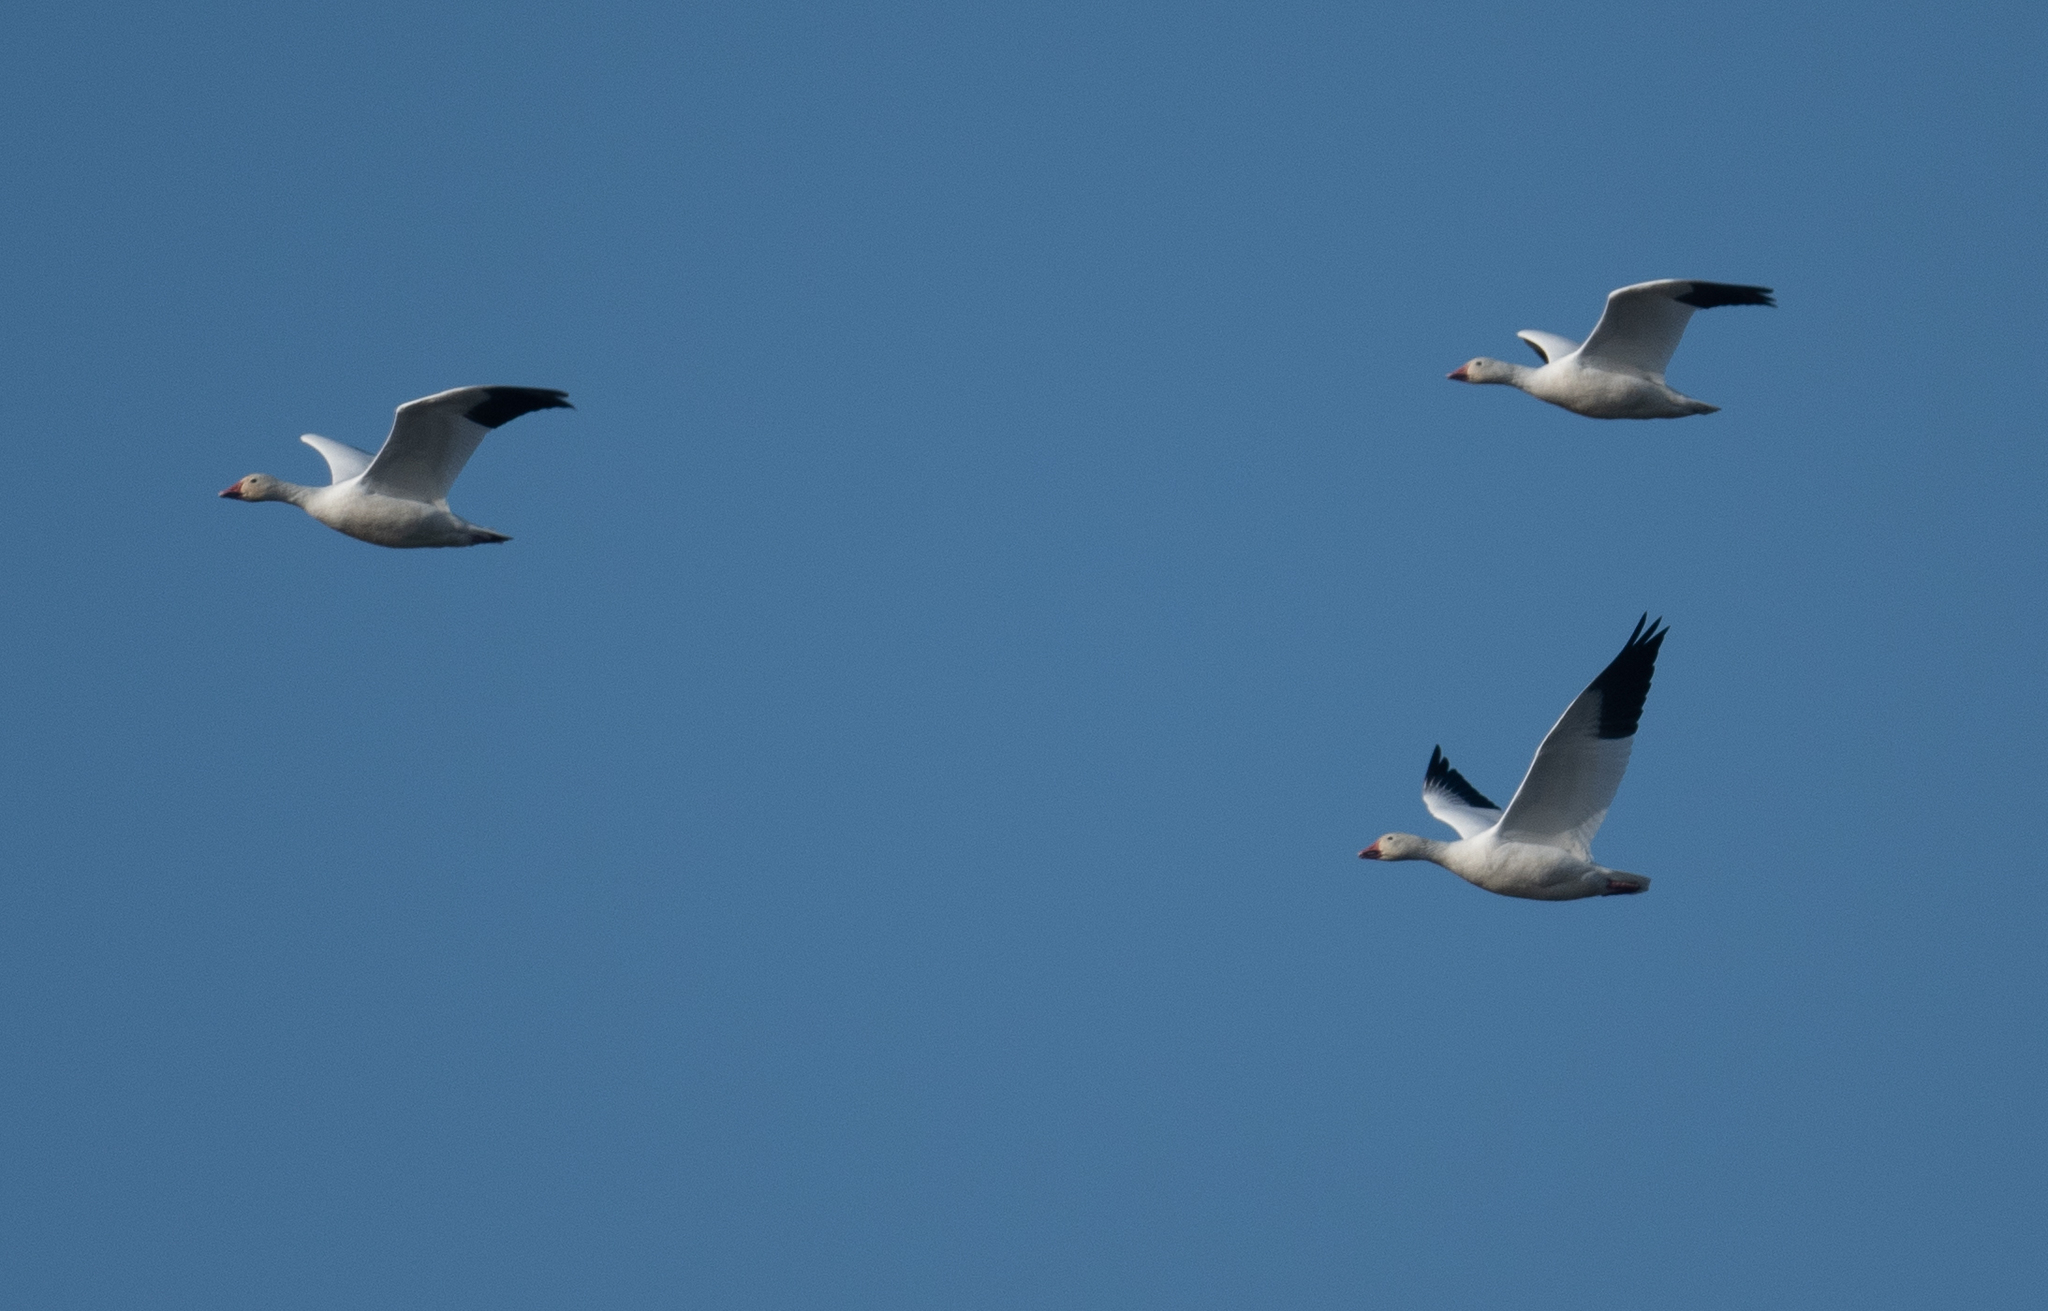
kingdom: Animalia
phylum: Chordata
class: Aves
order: Anseriformes
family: Anatidae
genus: Anser
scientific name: Anser caerulescens
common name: Snow goose
